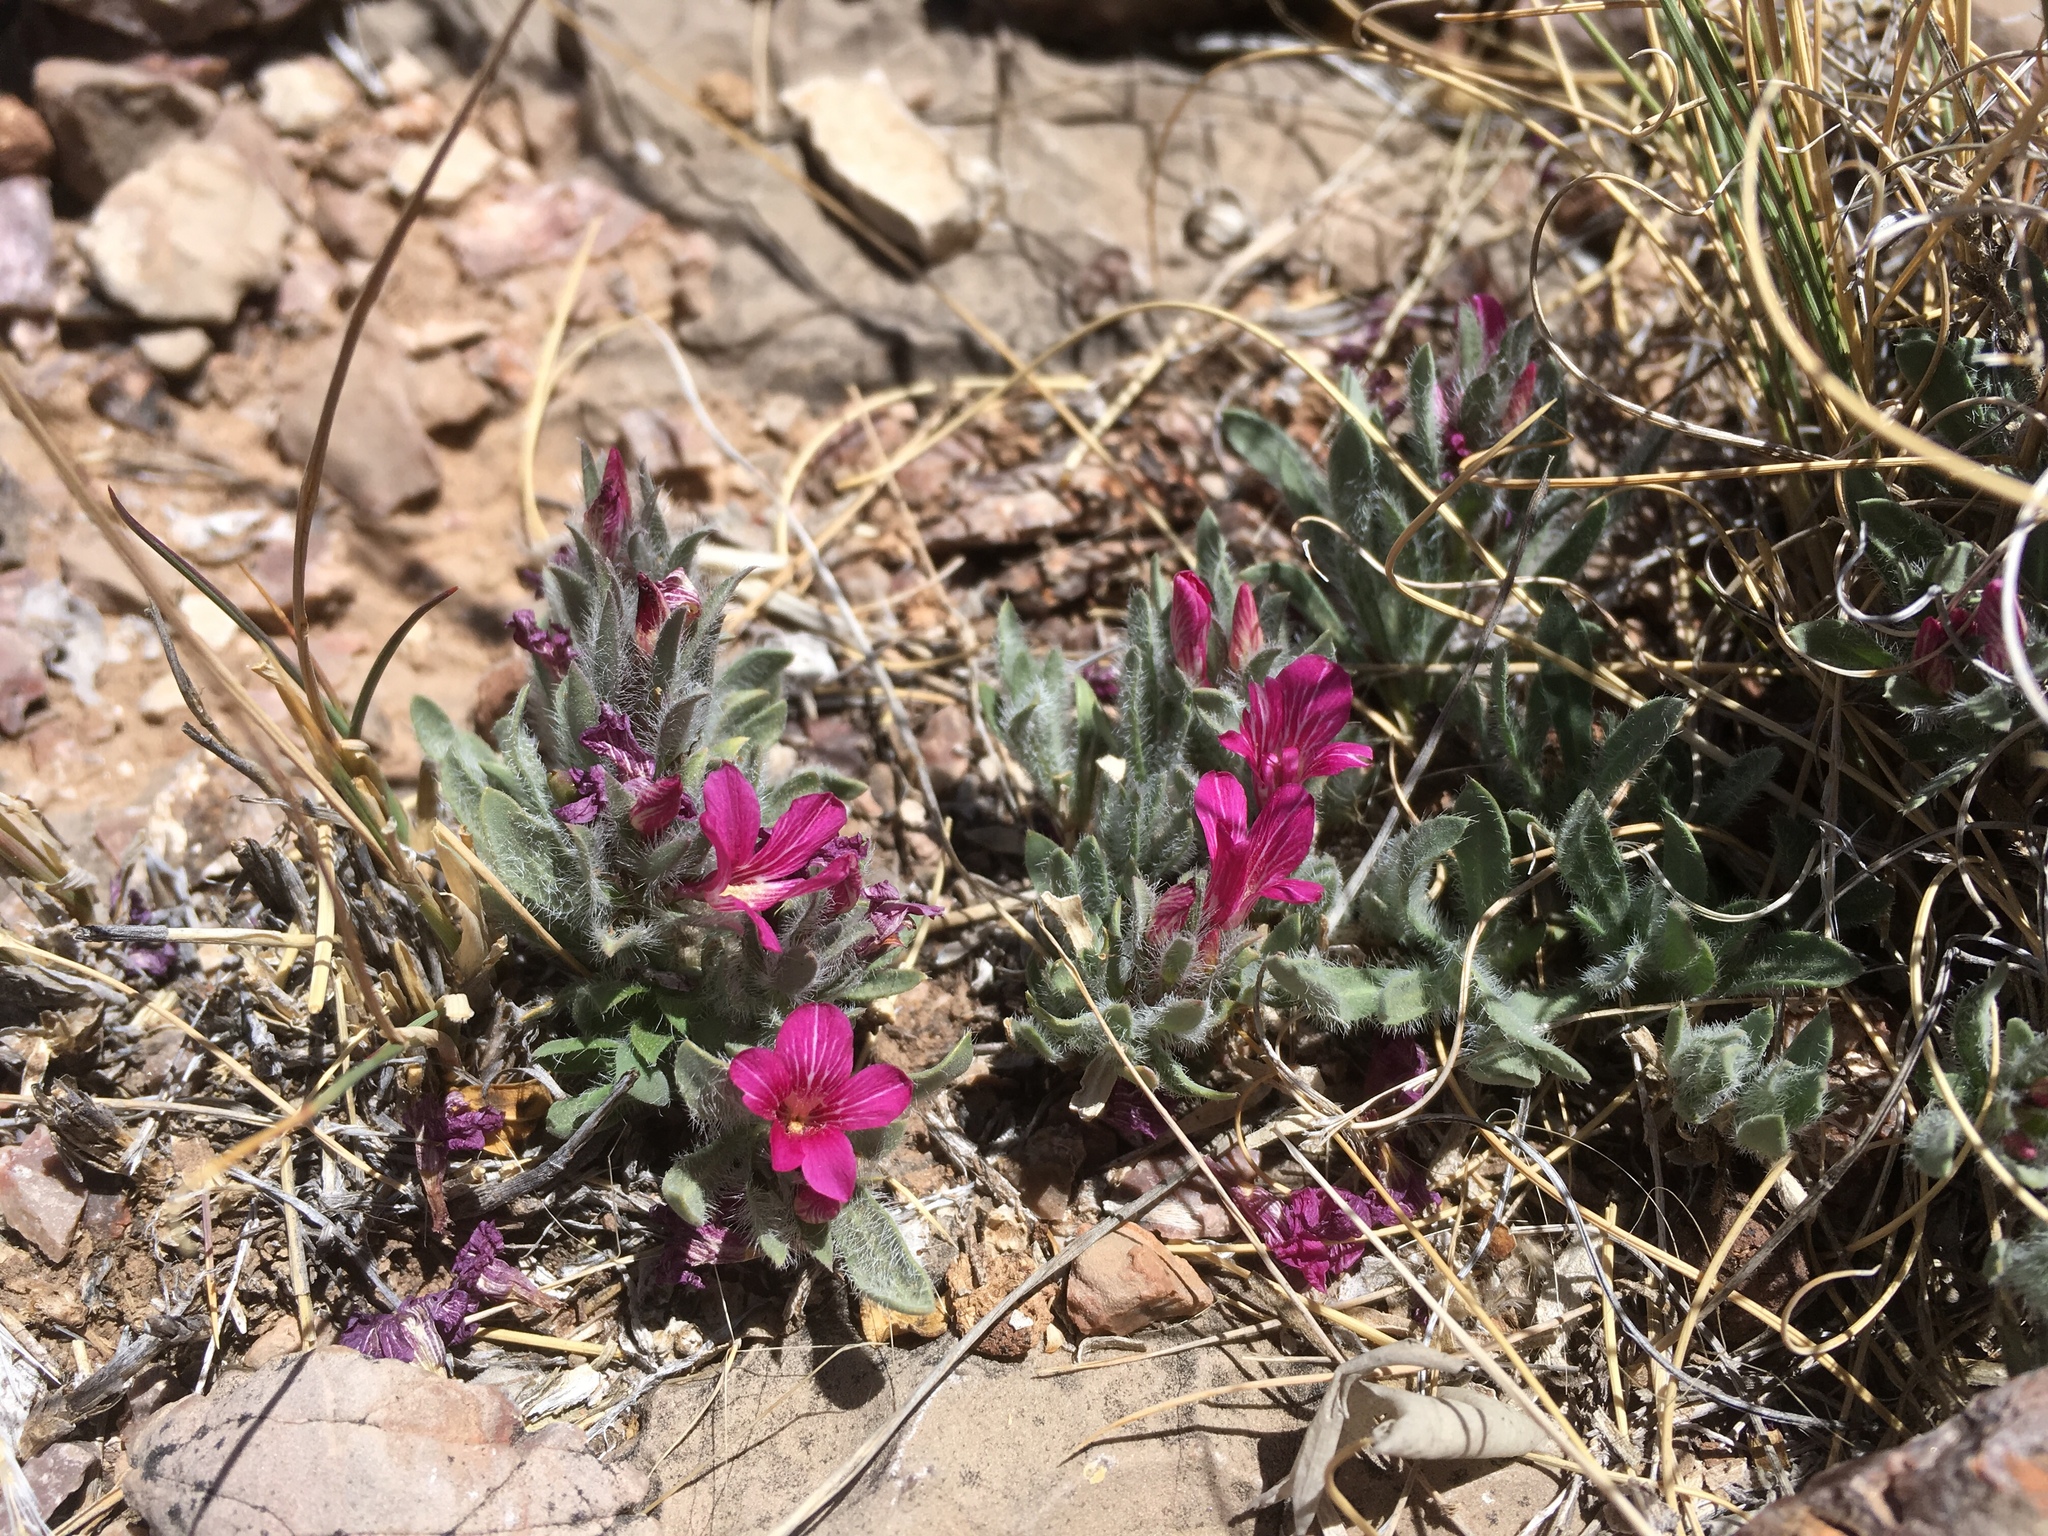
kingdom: Plantae
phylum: Tracheophyta
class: Magnoliopsida
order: Lamiales
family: Acanthaceae
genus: Stenandrium
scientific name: Stenandrium barbatum
